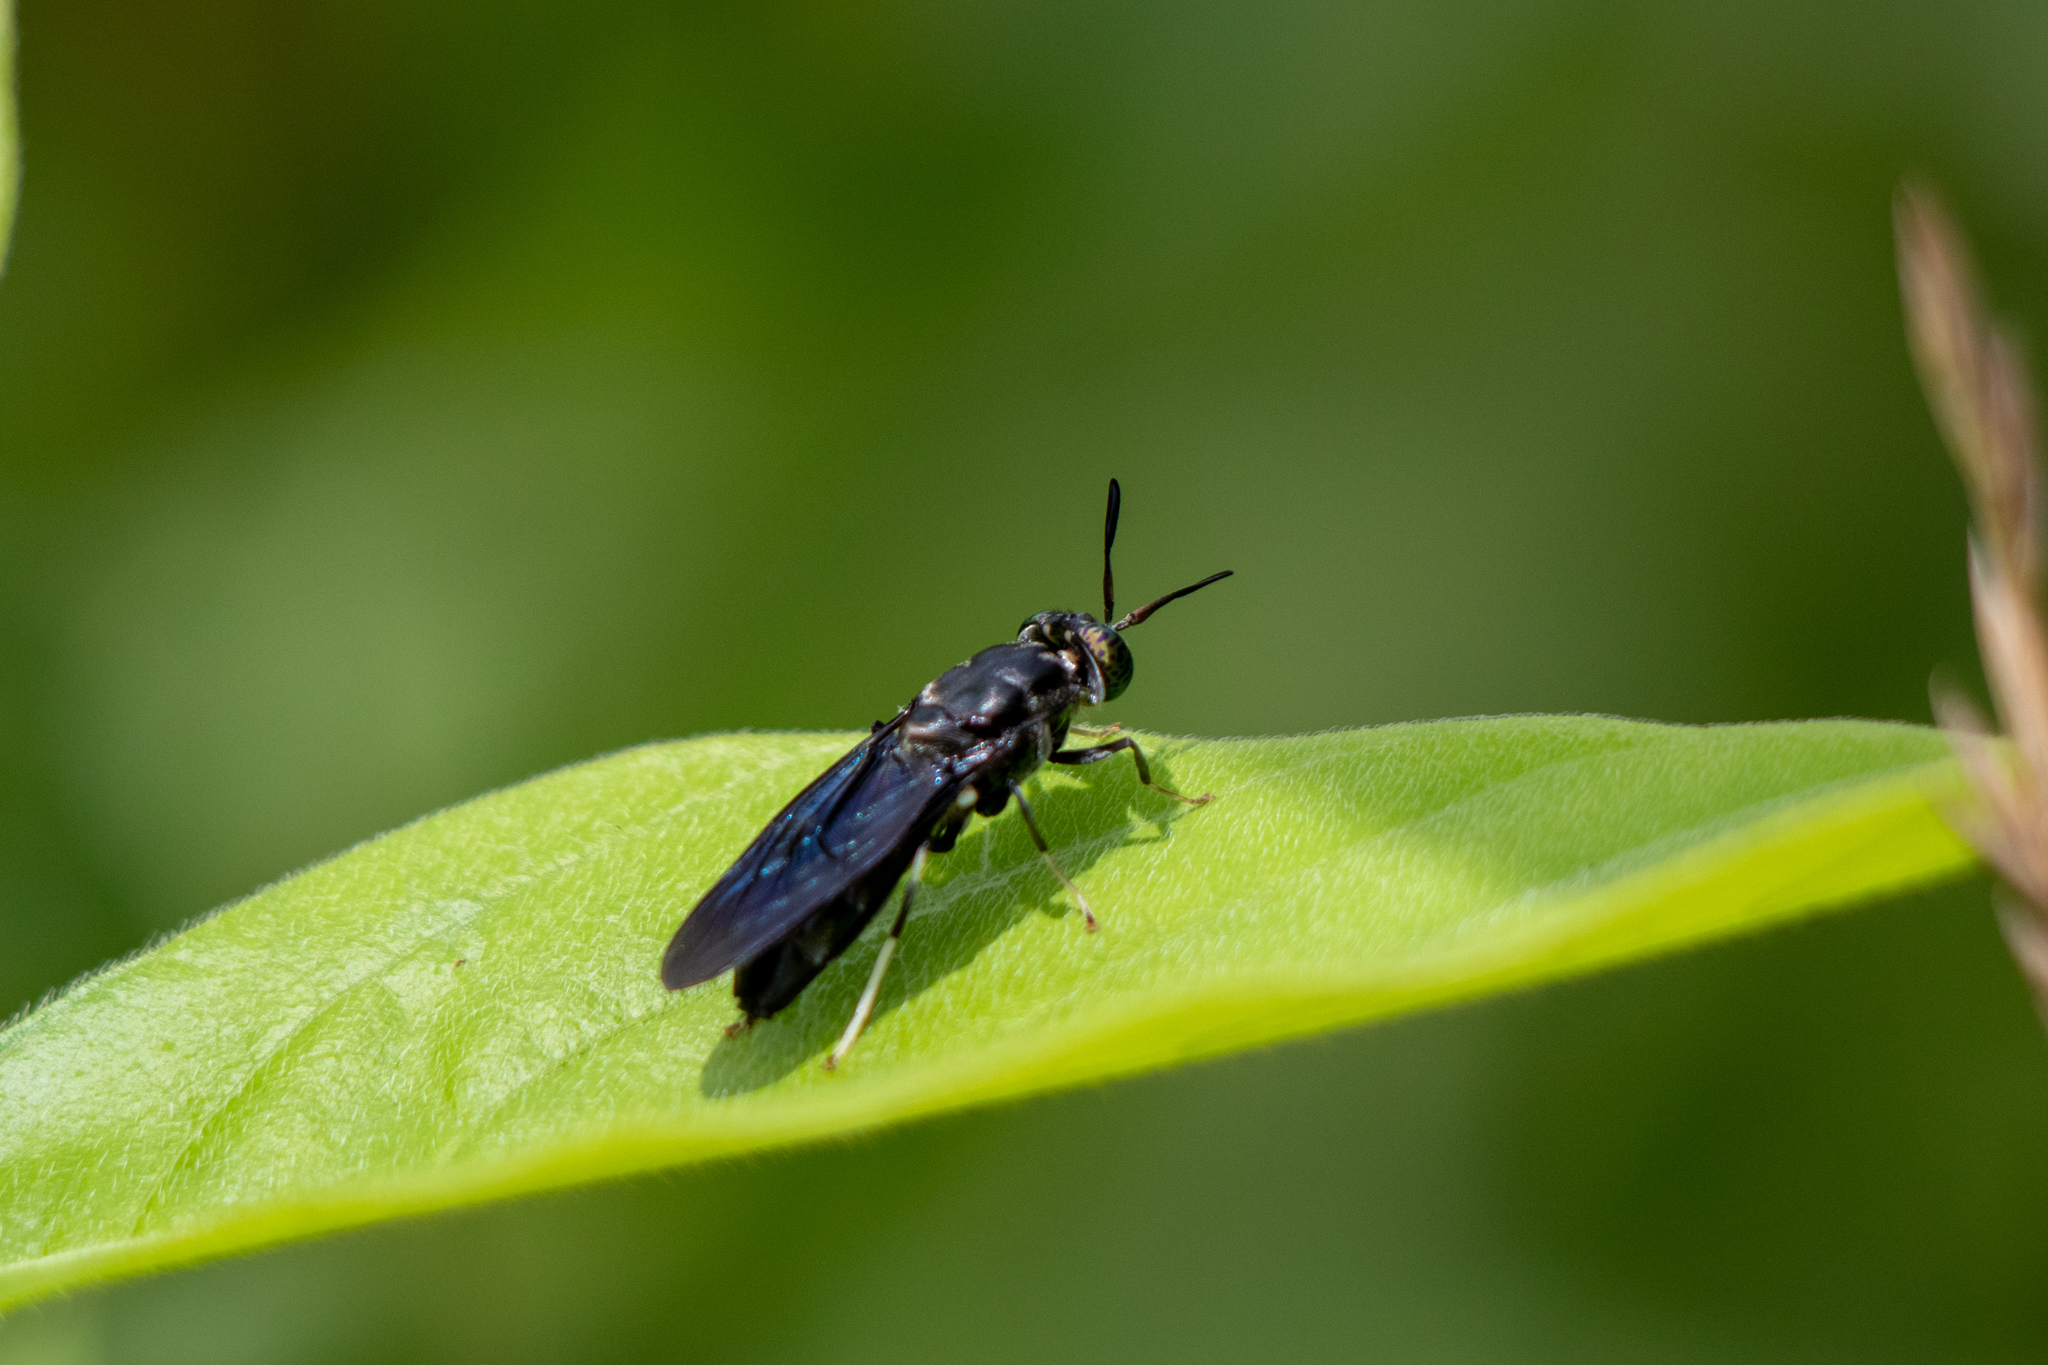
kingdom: Animalia
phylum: Arthropoda
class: Insecta
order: Diptera
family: Stratiomyidae
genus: Hermetia
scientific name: Hermetia illucens
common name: Black soldier fly
